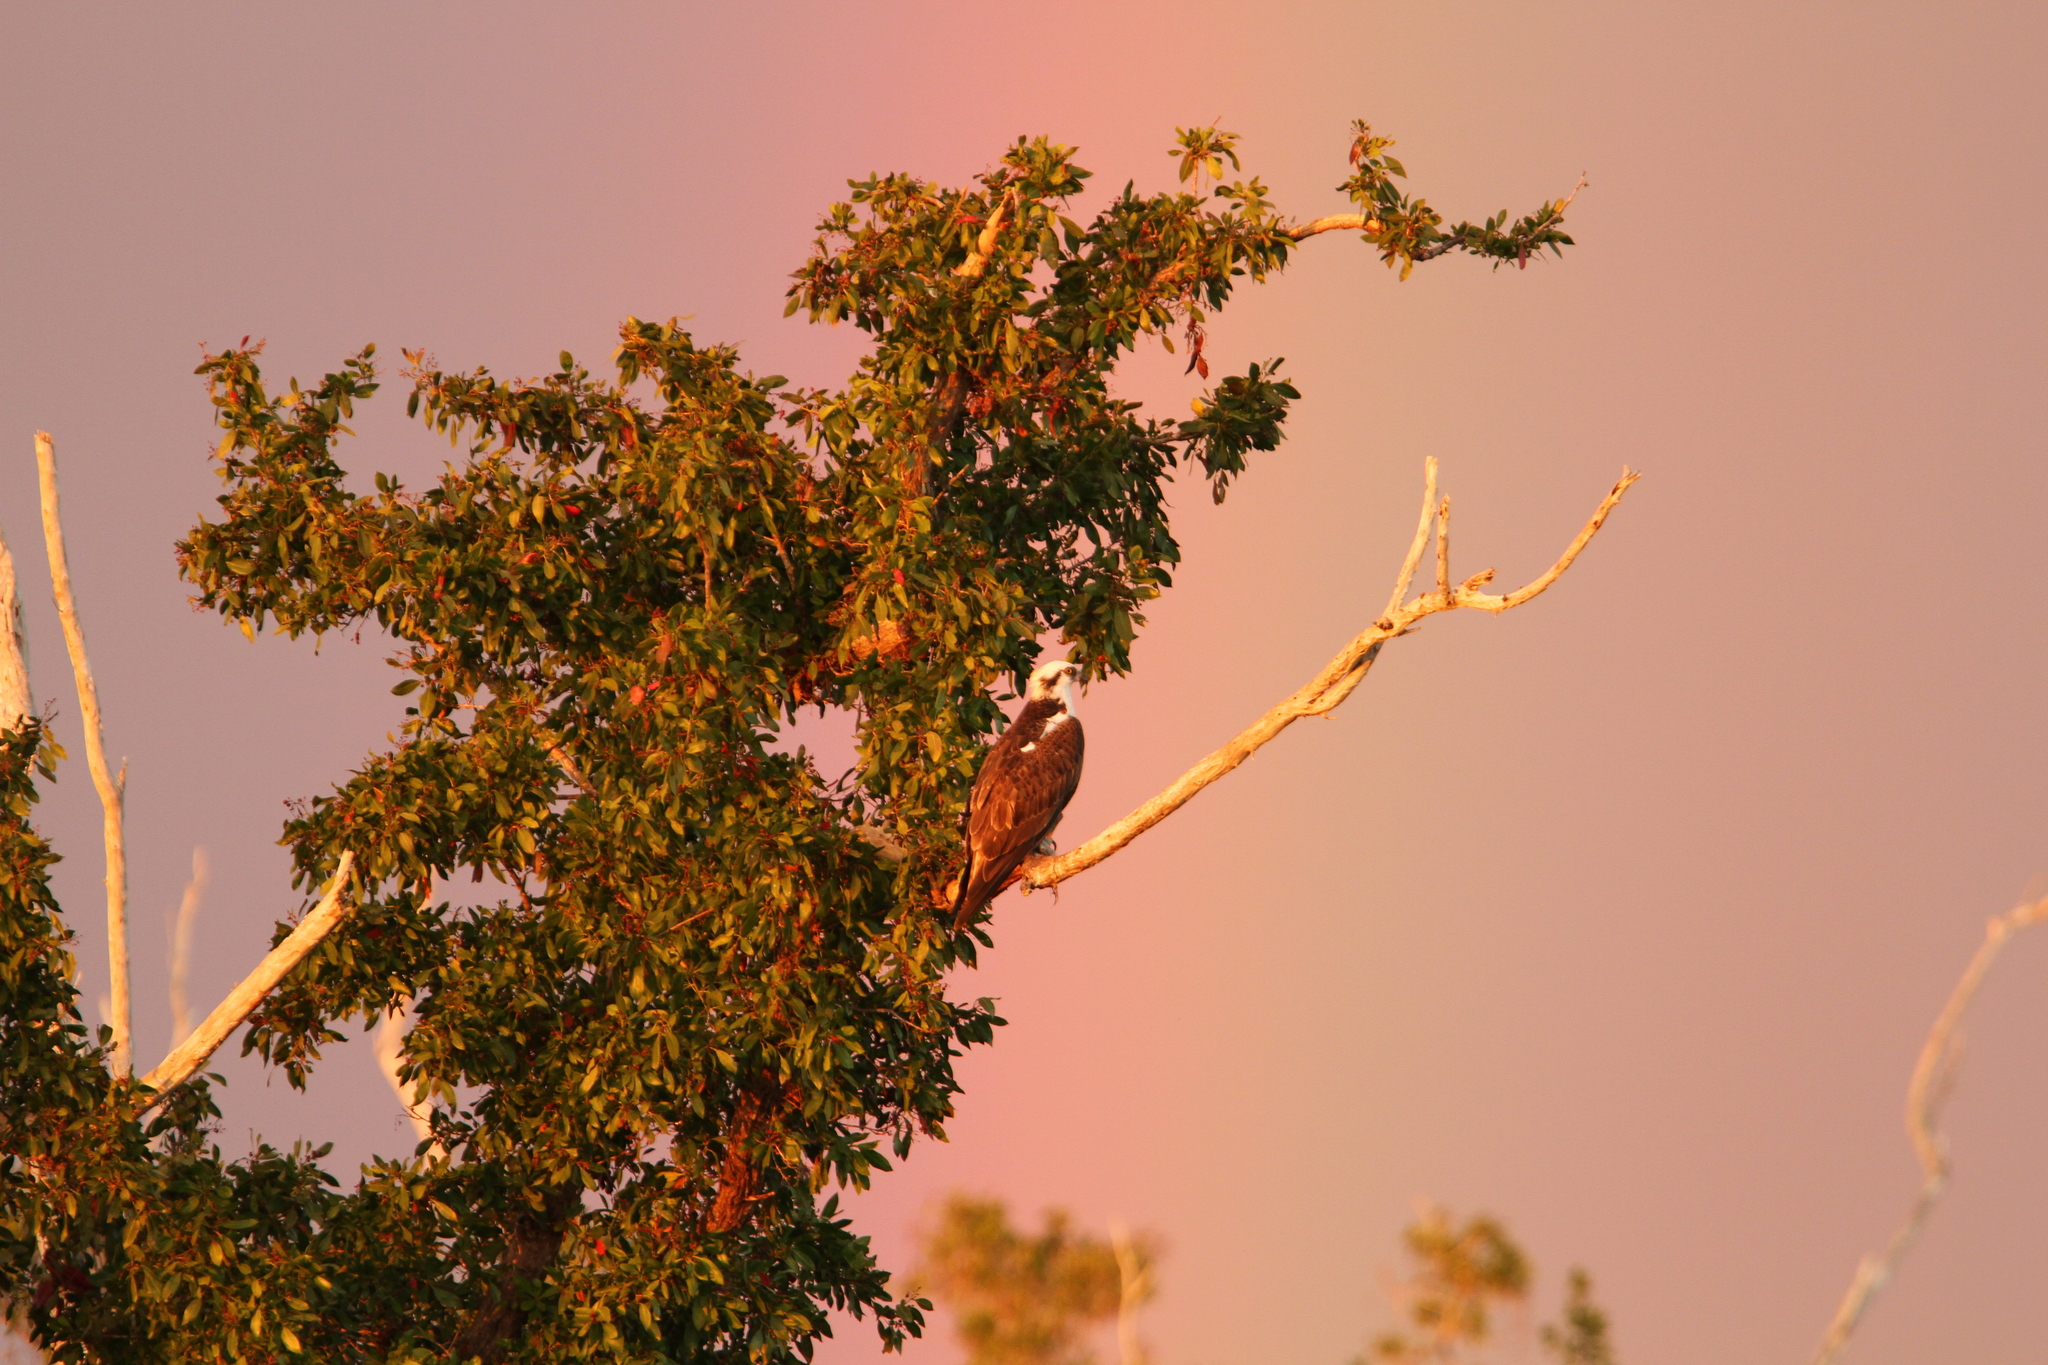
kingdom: Animalia
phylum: Chordata
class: Aves
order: Accipitriformes
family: Pandionidae
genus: Pandion
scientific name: Pandion haliaetus
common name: Osprey
